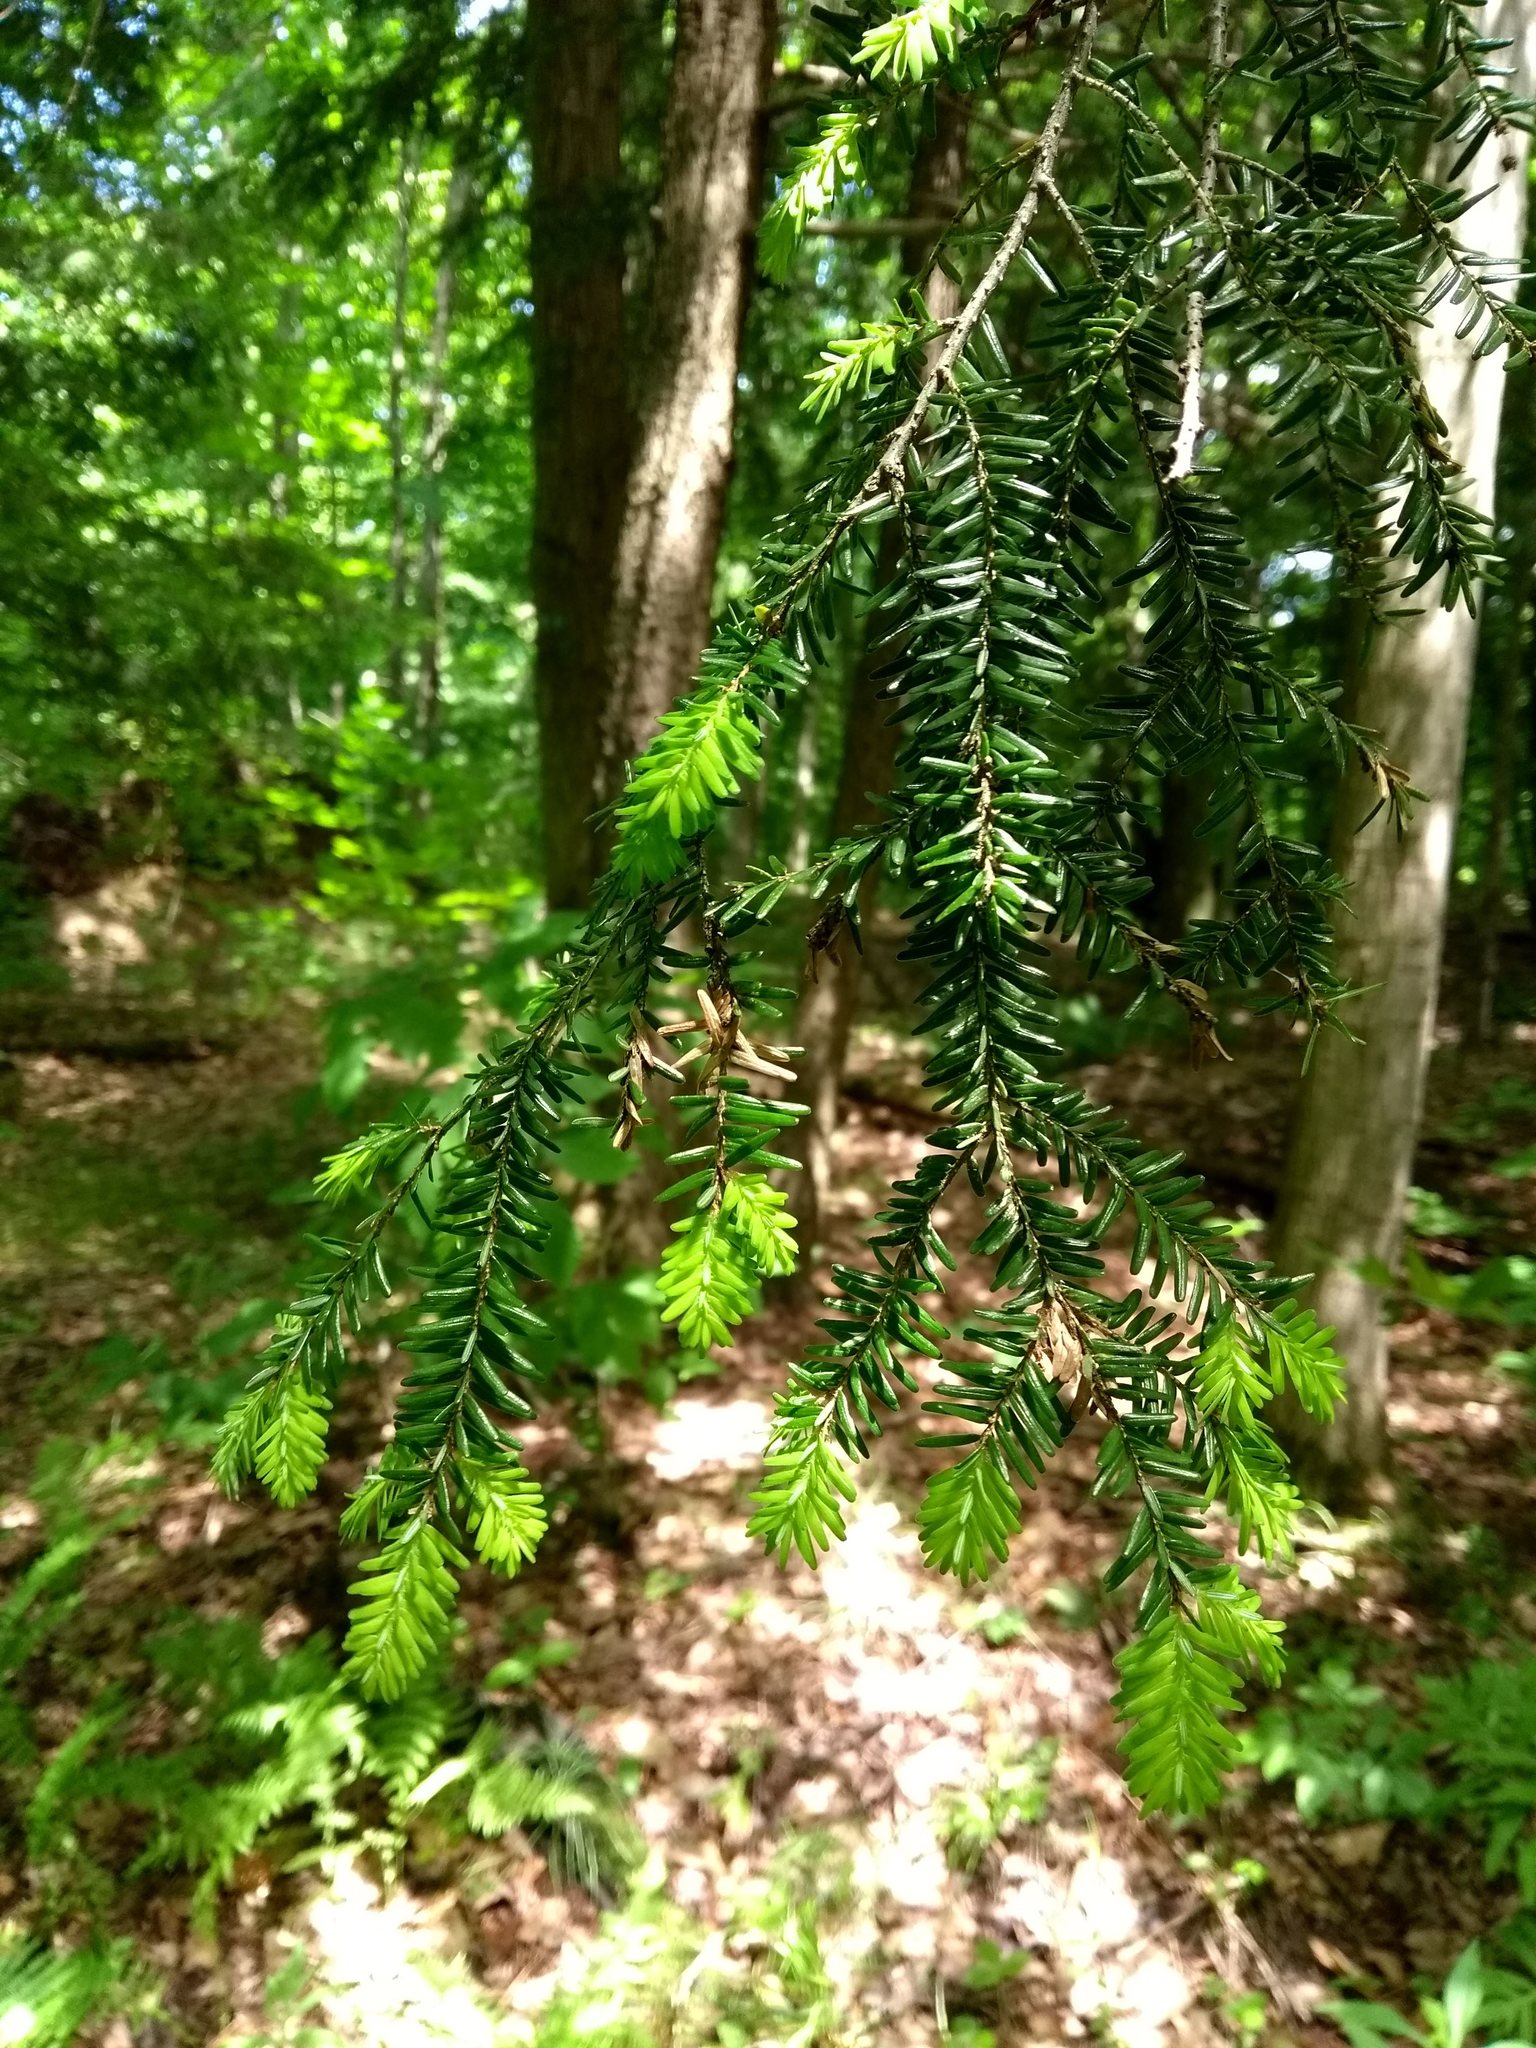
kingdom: Plantae
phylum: Tracheophyta
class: Pinopsida
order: Pinales
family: Pinaceae
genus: Tsuga
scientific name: Tsuga canadensis
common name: Eastern hemlock
